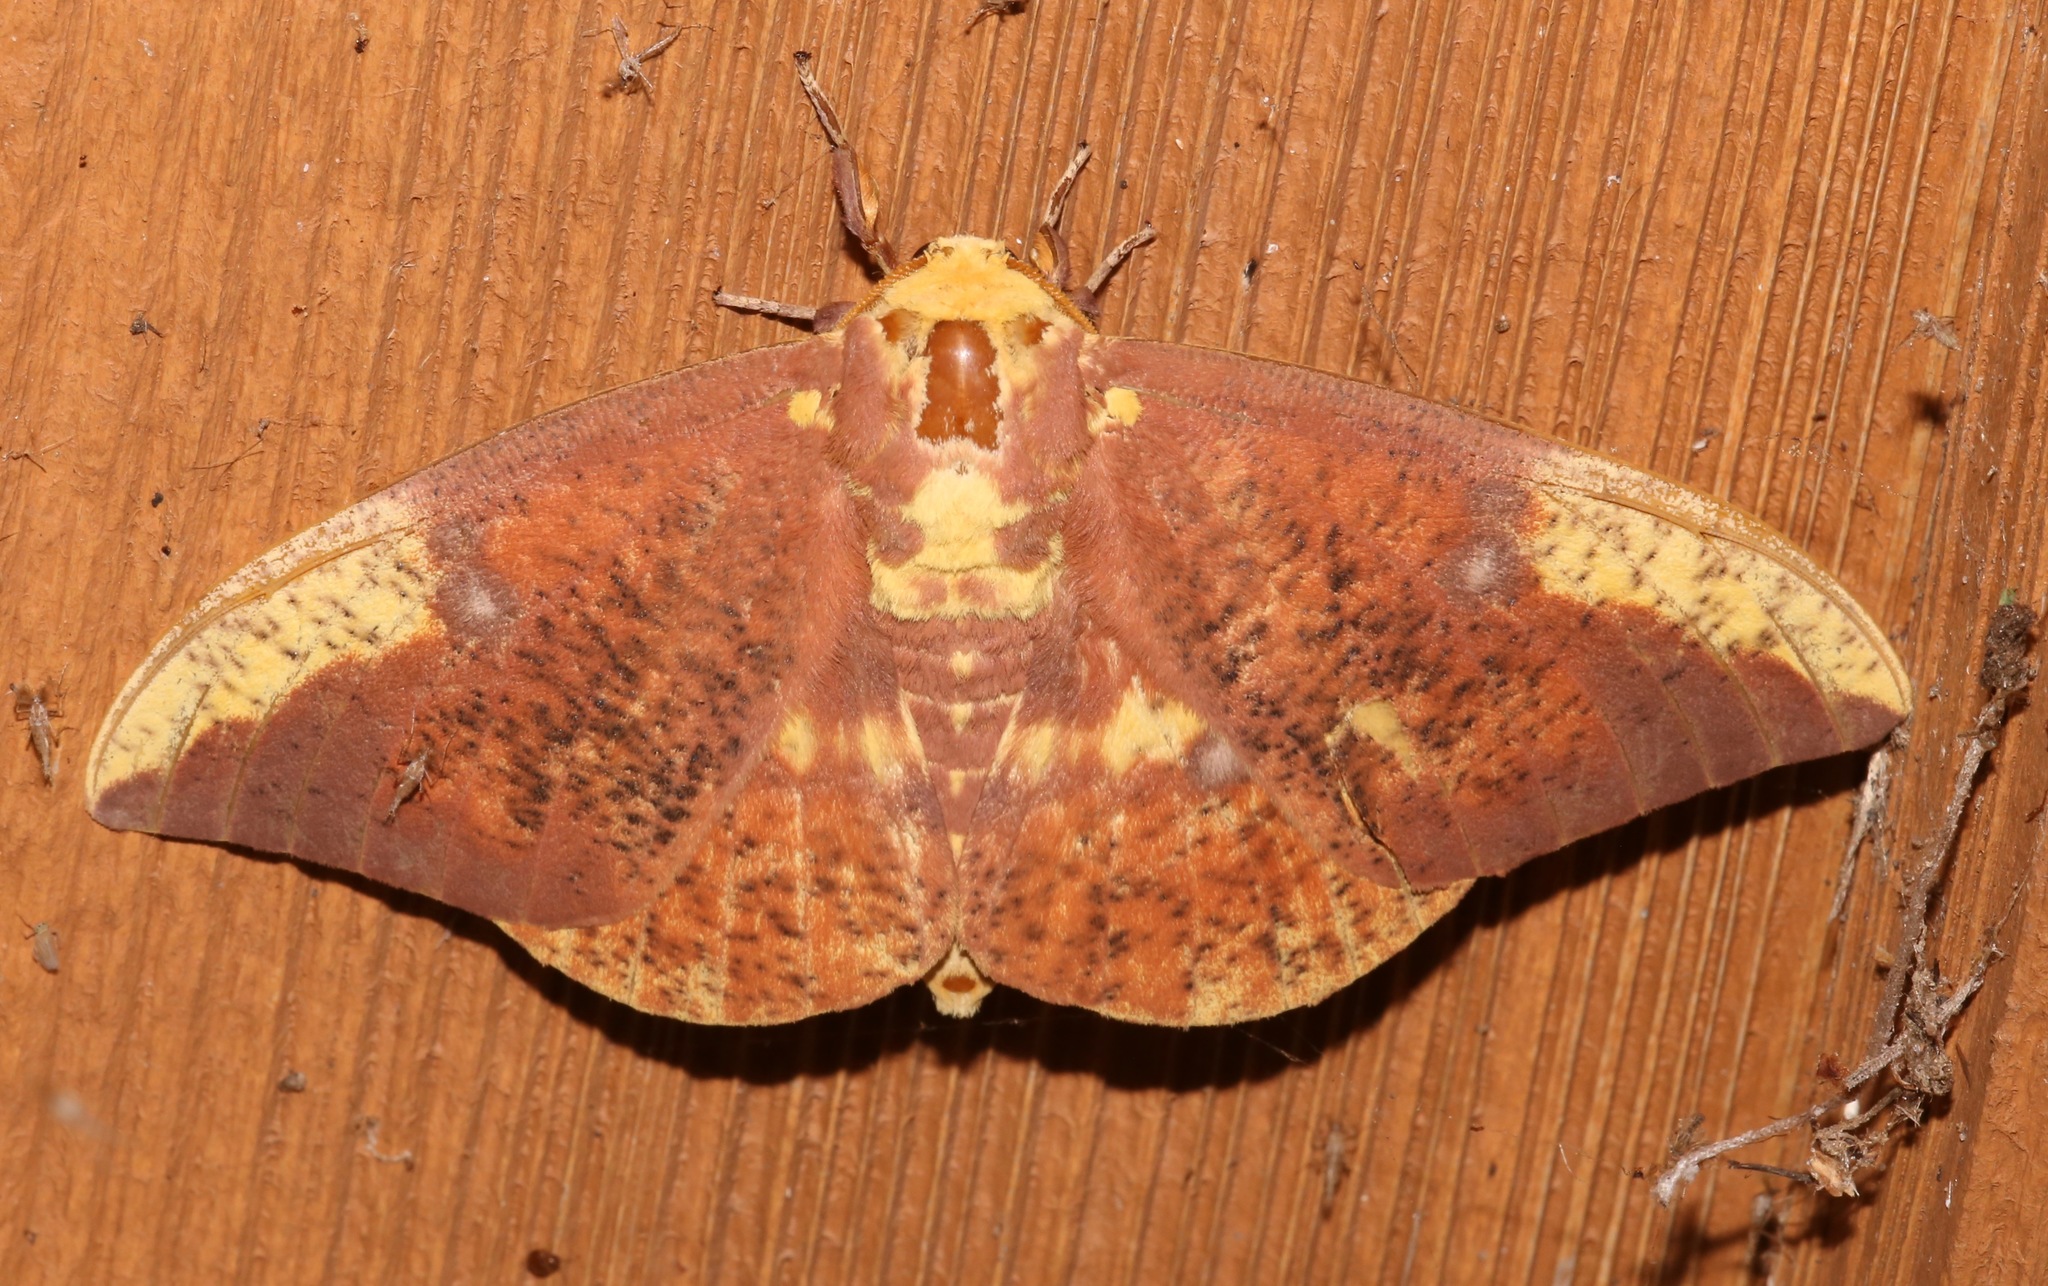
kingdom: Animalia
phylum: Arthropoda
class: Insecta
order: Lepidoptera
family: Saturniidae
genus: Eacles
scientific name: Eacles imperialis
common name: Imperial moth
